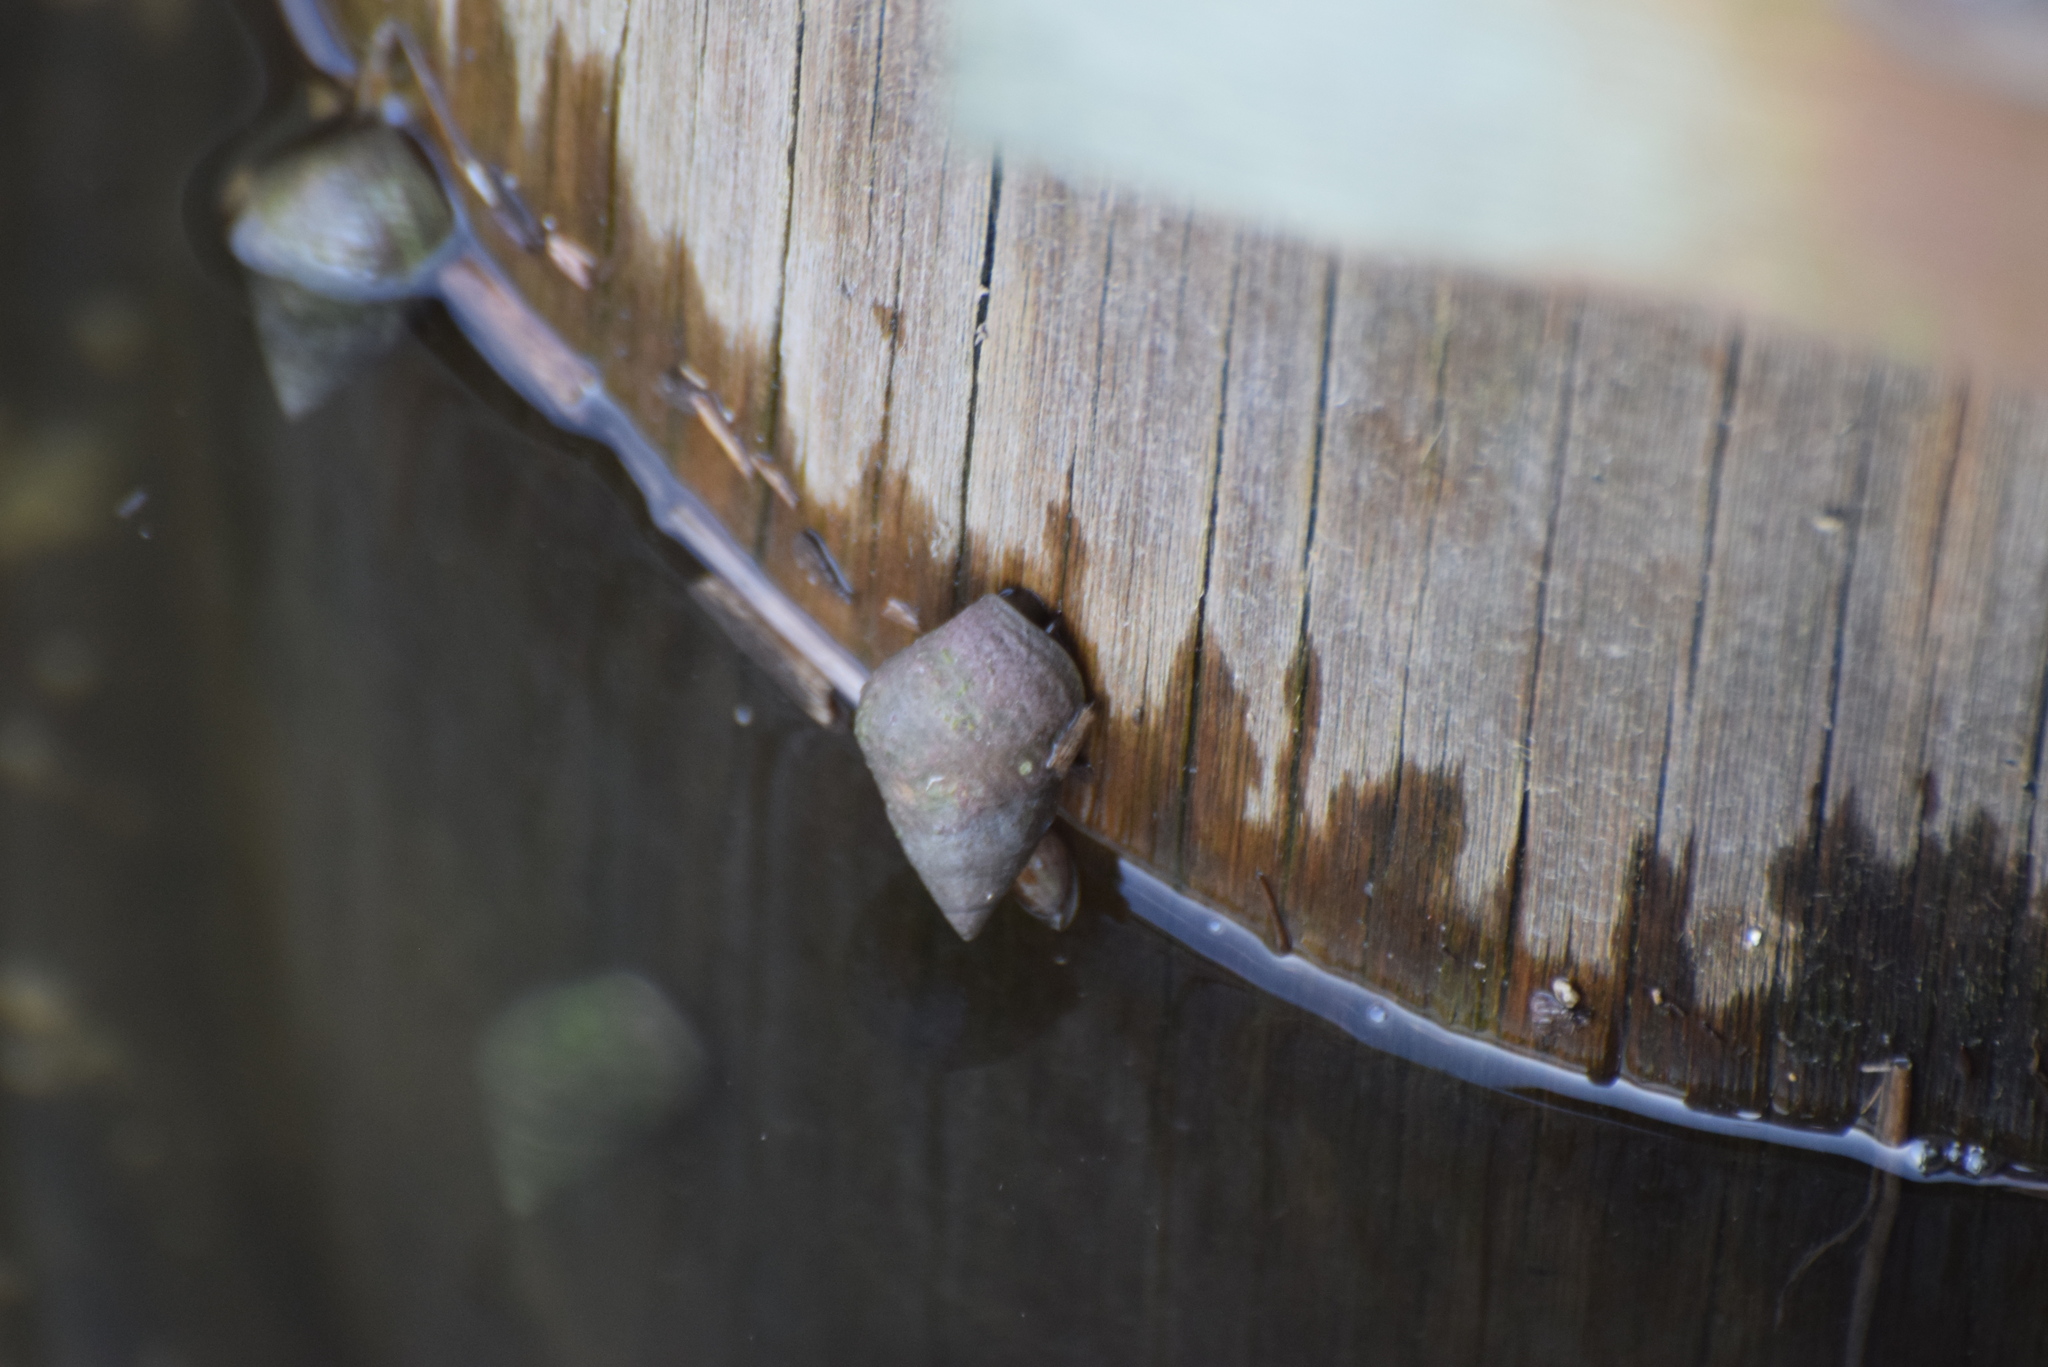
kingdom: Animalia
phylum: Mollusca
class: Gastropoda
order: Littorinimorpha
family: Littorinidae
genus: Littoraria
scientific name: Littoraria irrorata
